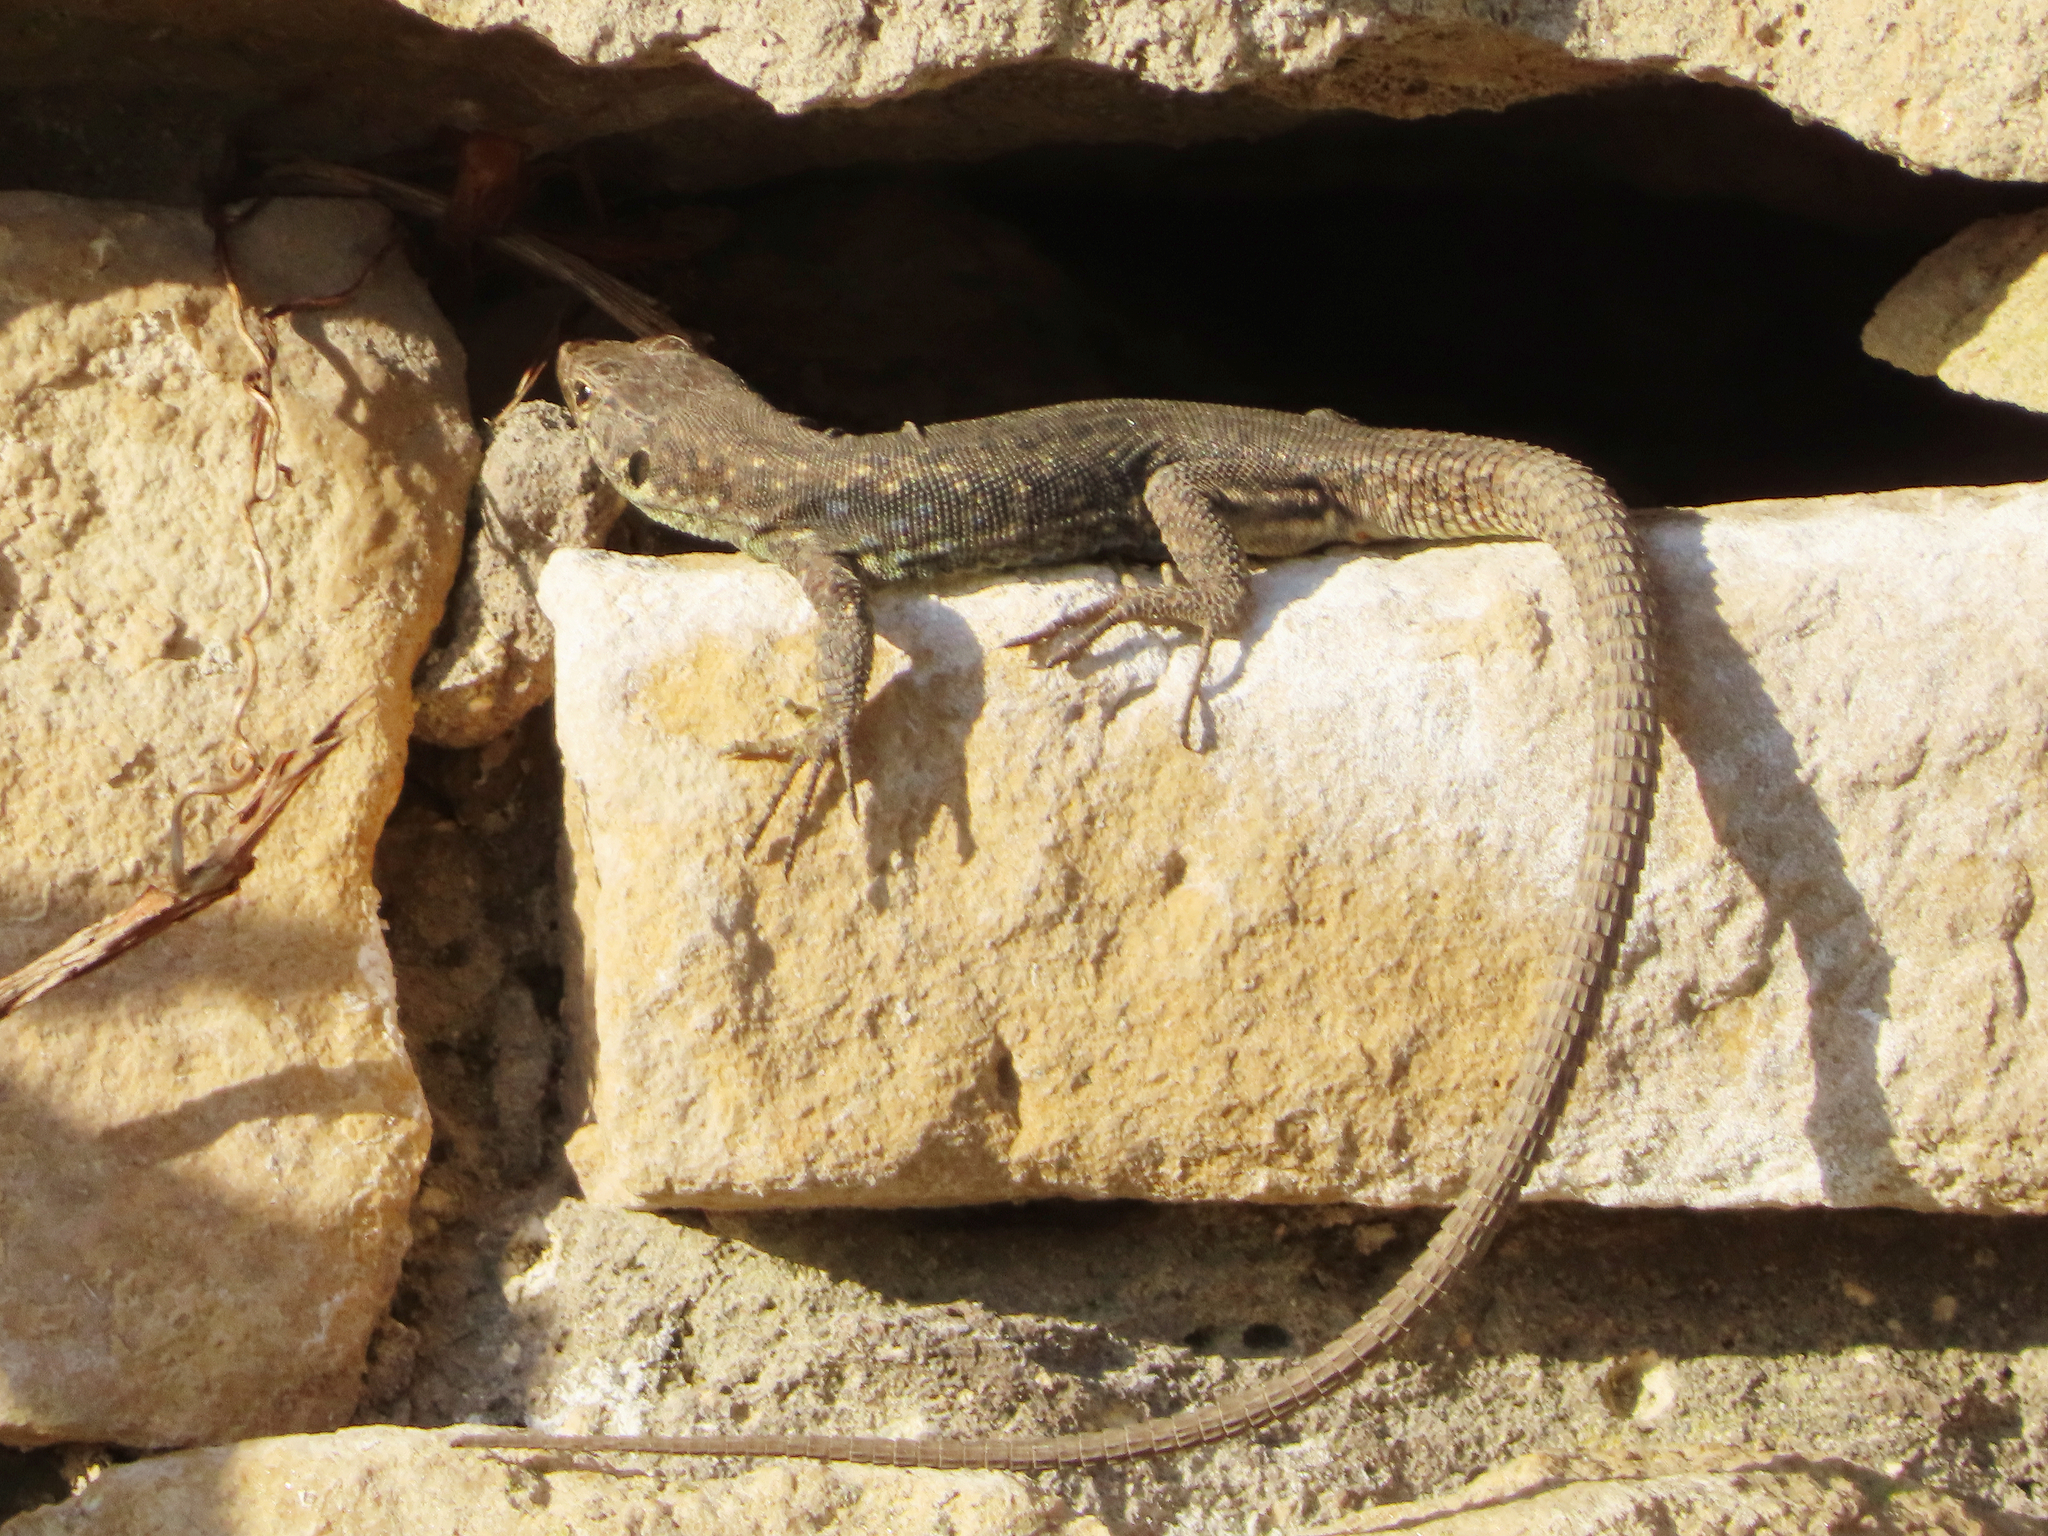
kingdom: Animalia
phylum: Chordata
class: Squamata
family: Lacertidae
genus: Darevskia
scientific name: Darevskia rudis
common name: Spiny-tailed lizard
